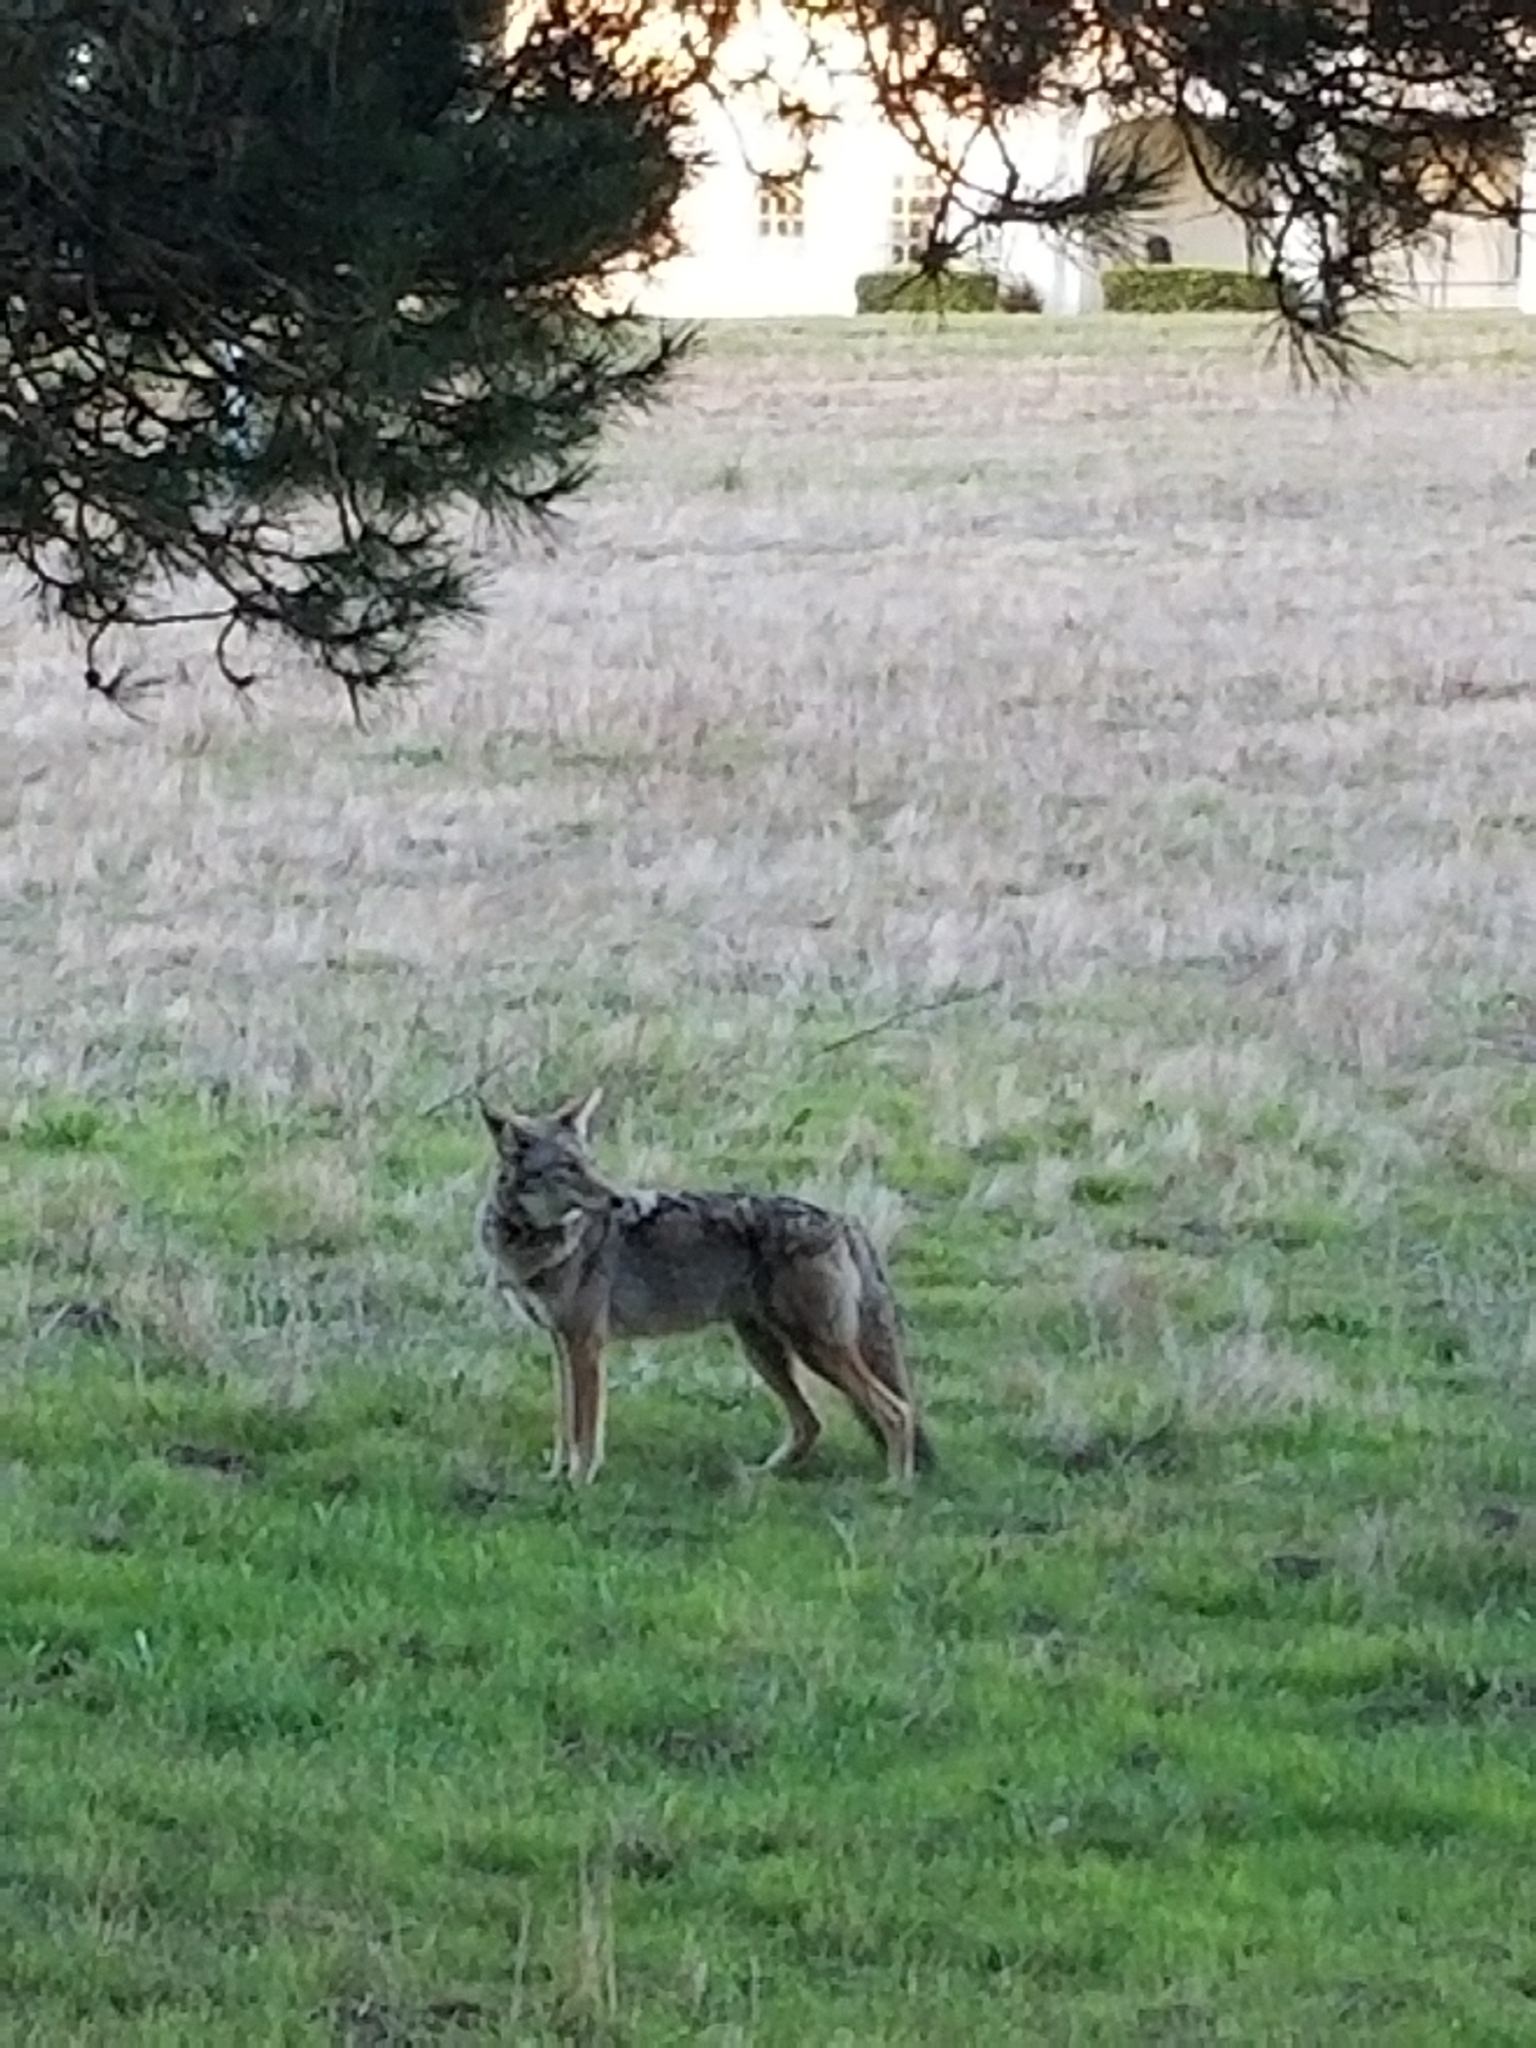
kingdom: Animalia
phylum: Chordata
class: Mammalia
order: Carnivora
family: Canidae
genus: Canis
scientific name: Canis latrans
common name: Coyote
